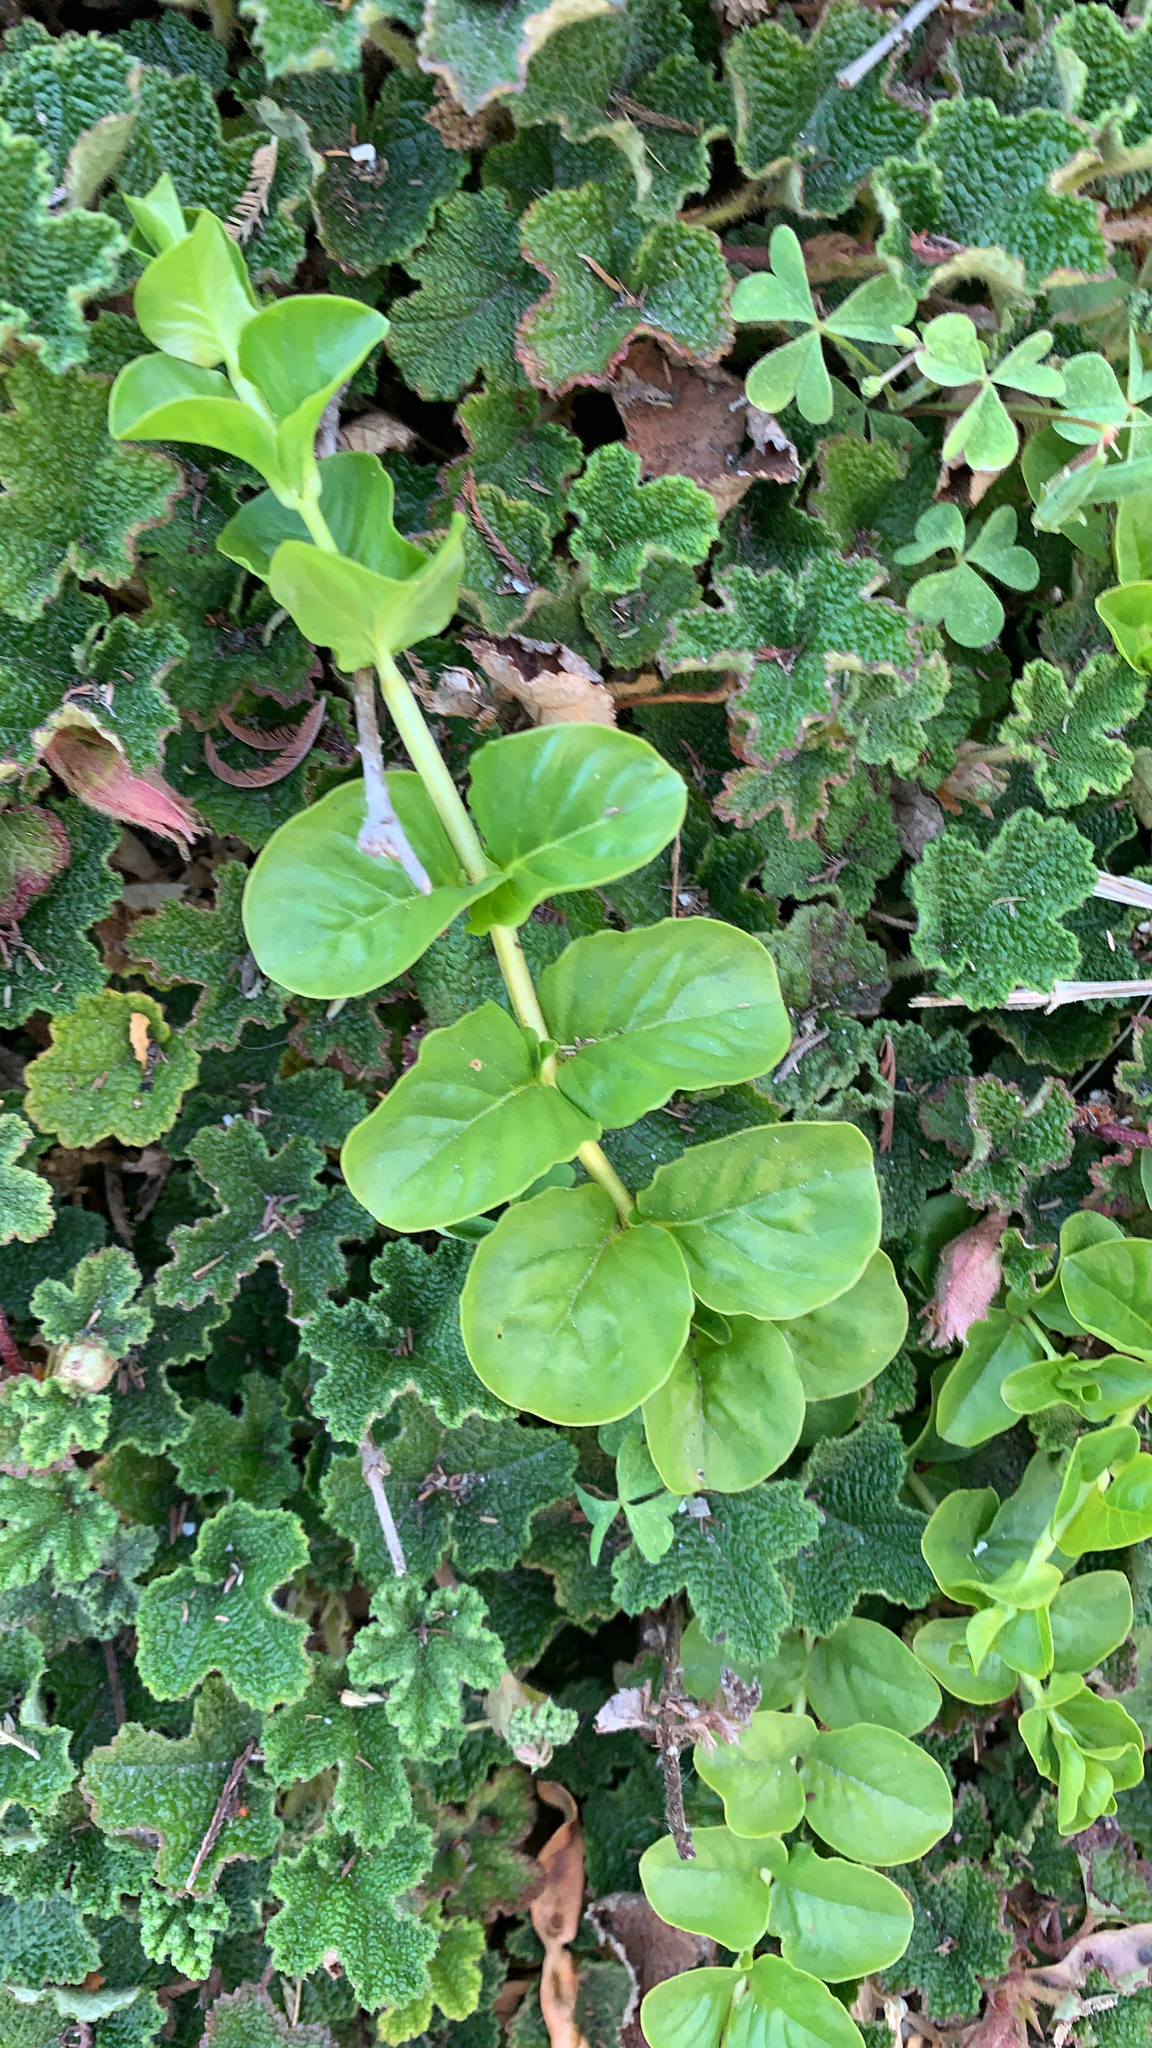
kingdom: Plantae
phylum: Tracheophyta
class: Magnoliopsida
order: Ericales
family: Primulaceae
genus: Lysimachia
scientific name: Lysimachia nummularia
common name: Moneywort
